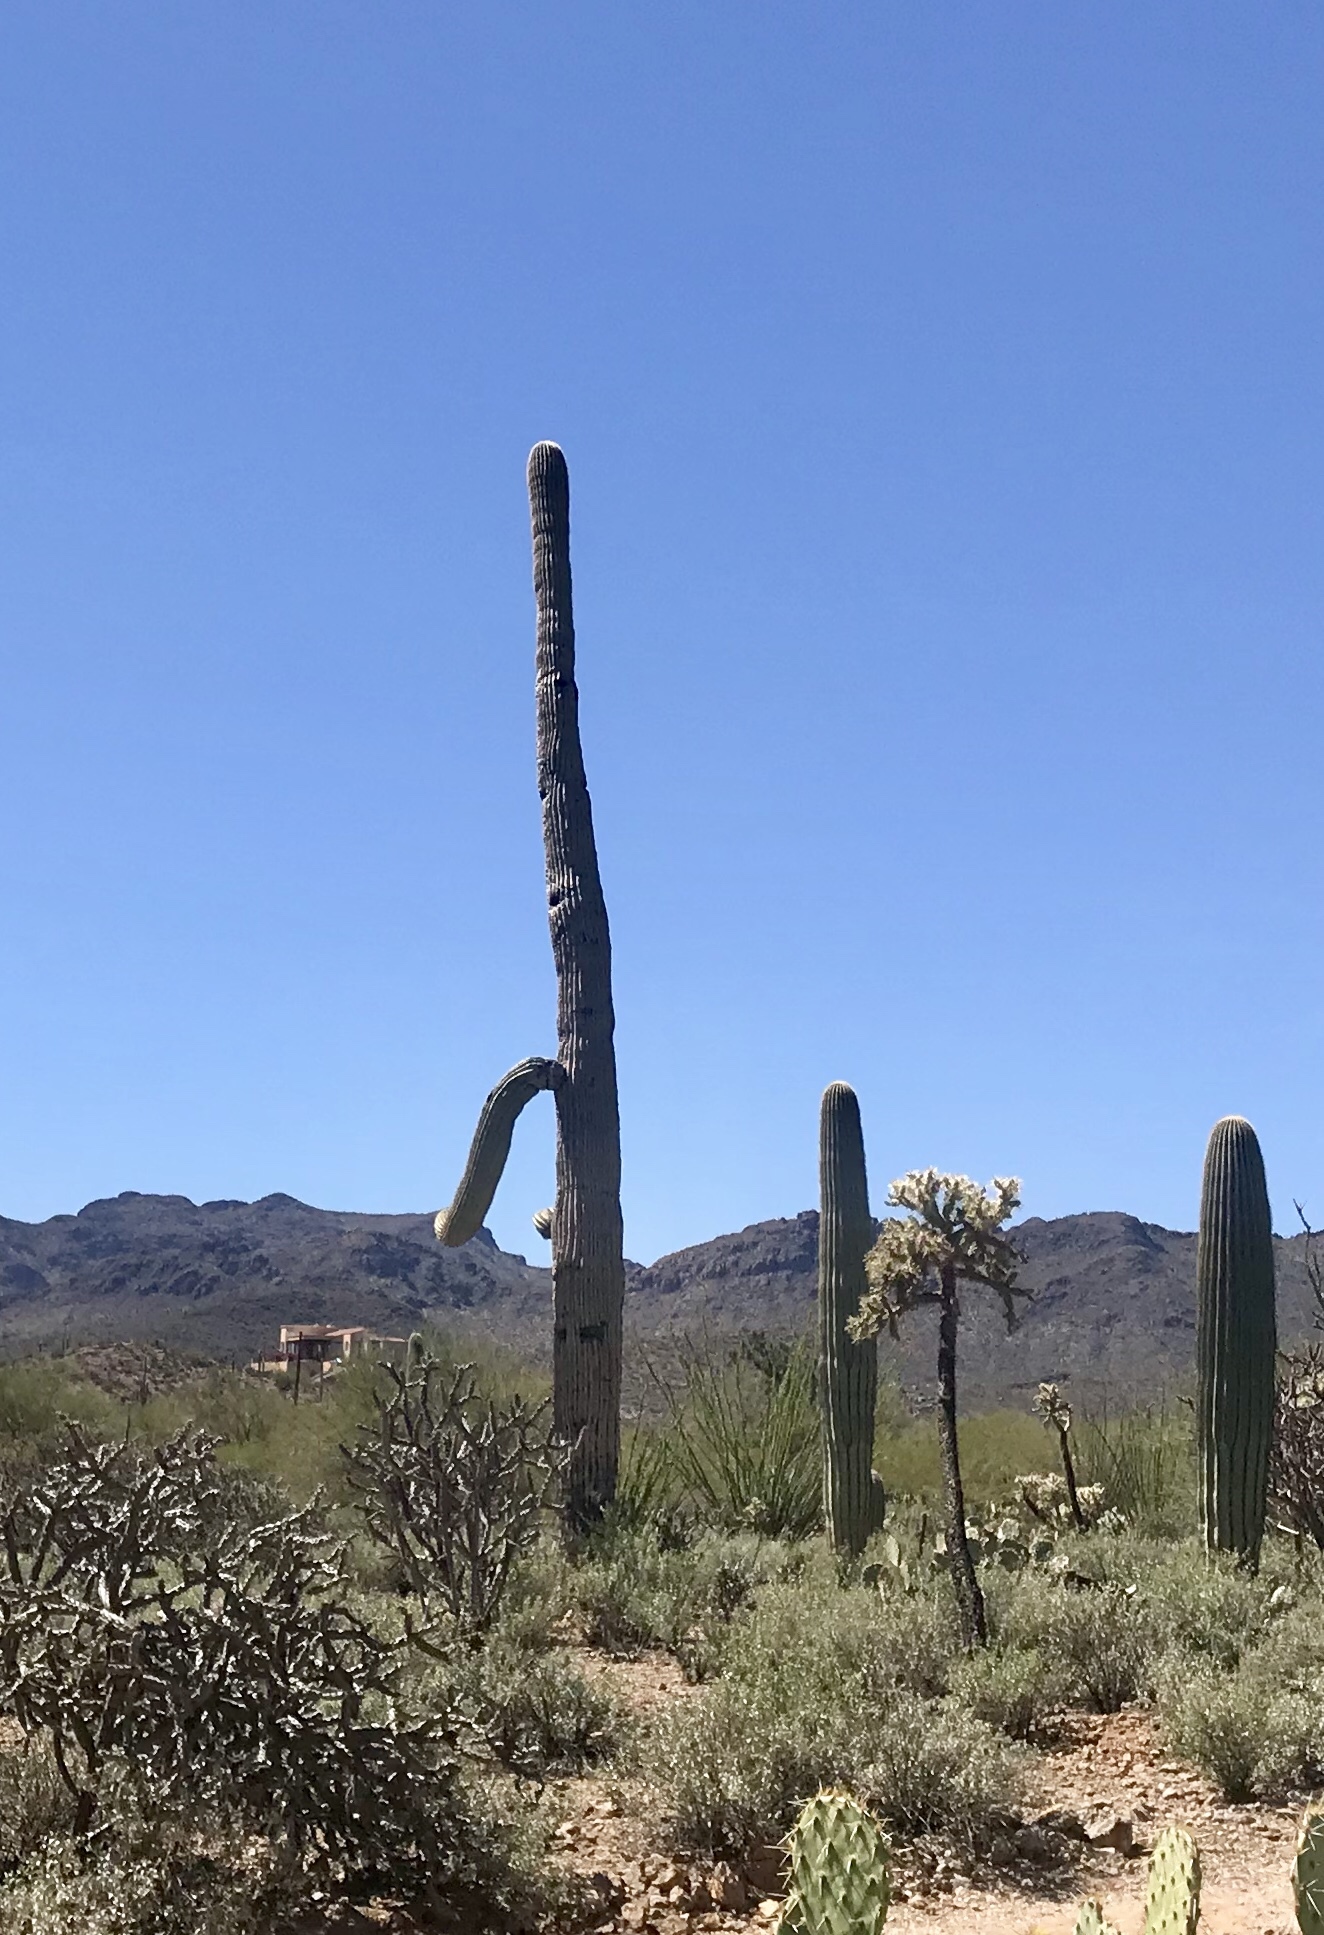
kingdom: Plantae
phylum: Tracheophyta
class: Magnoliopsida
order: Caryophyllales
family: Cactaceae
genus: Carnegiea
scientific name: Carnegiea gigantea
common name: Saguaro
